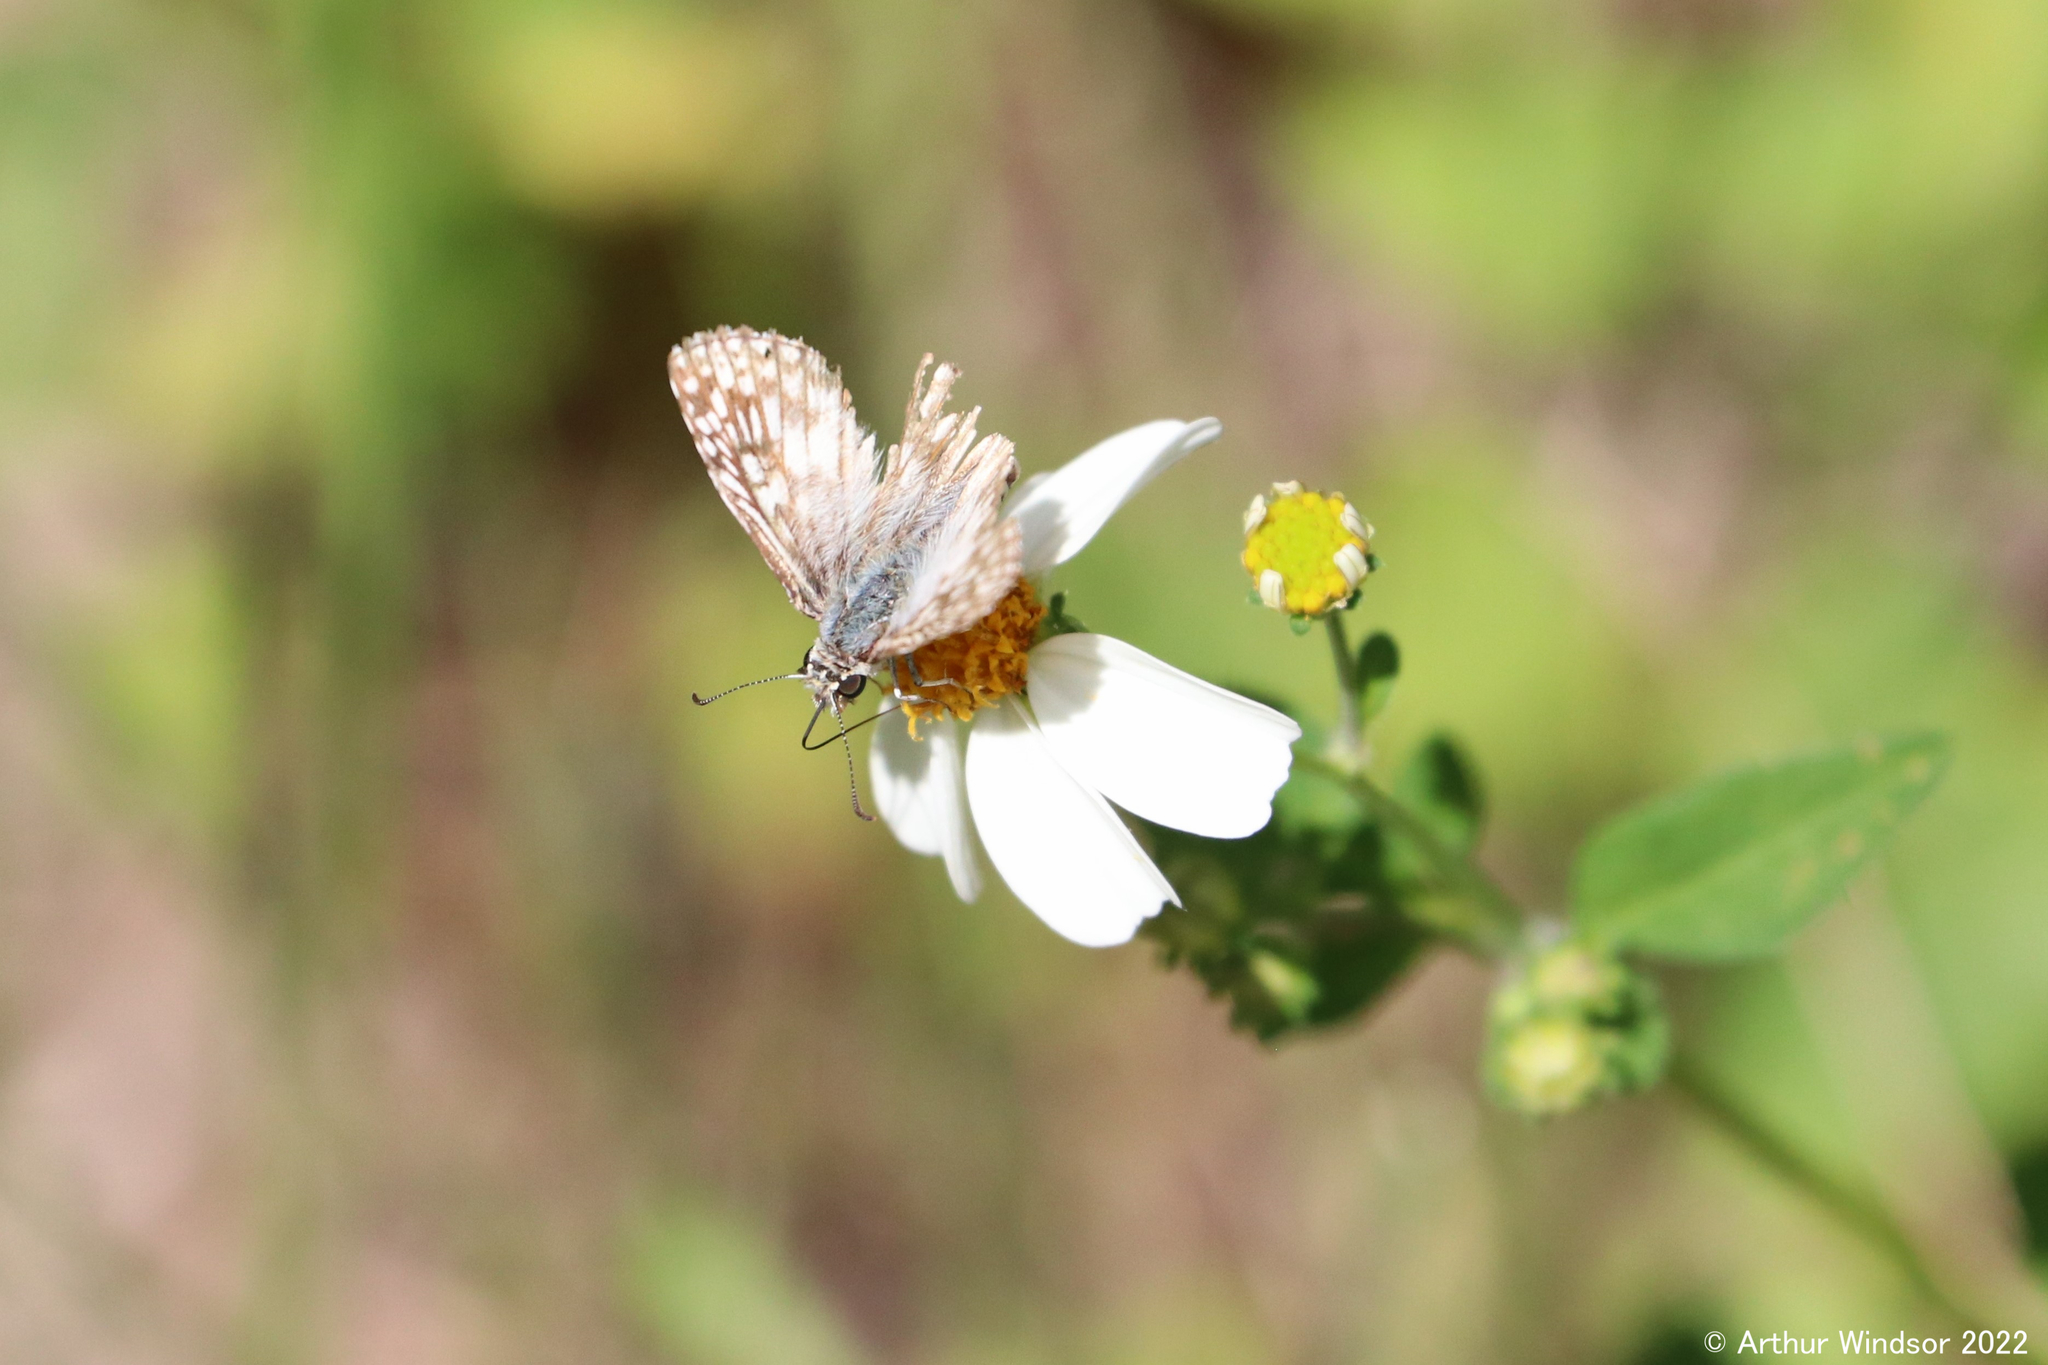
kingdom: Animalia
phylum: Arthropoda
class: Insecta
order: Lepidoptera
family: Hesperiidae
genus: Pyrgus
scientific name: Pyrgus oileus
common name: Tropical checkered-skipper
